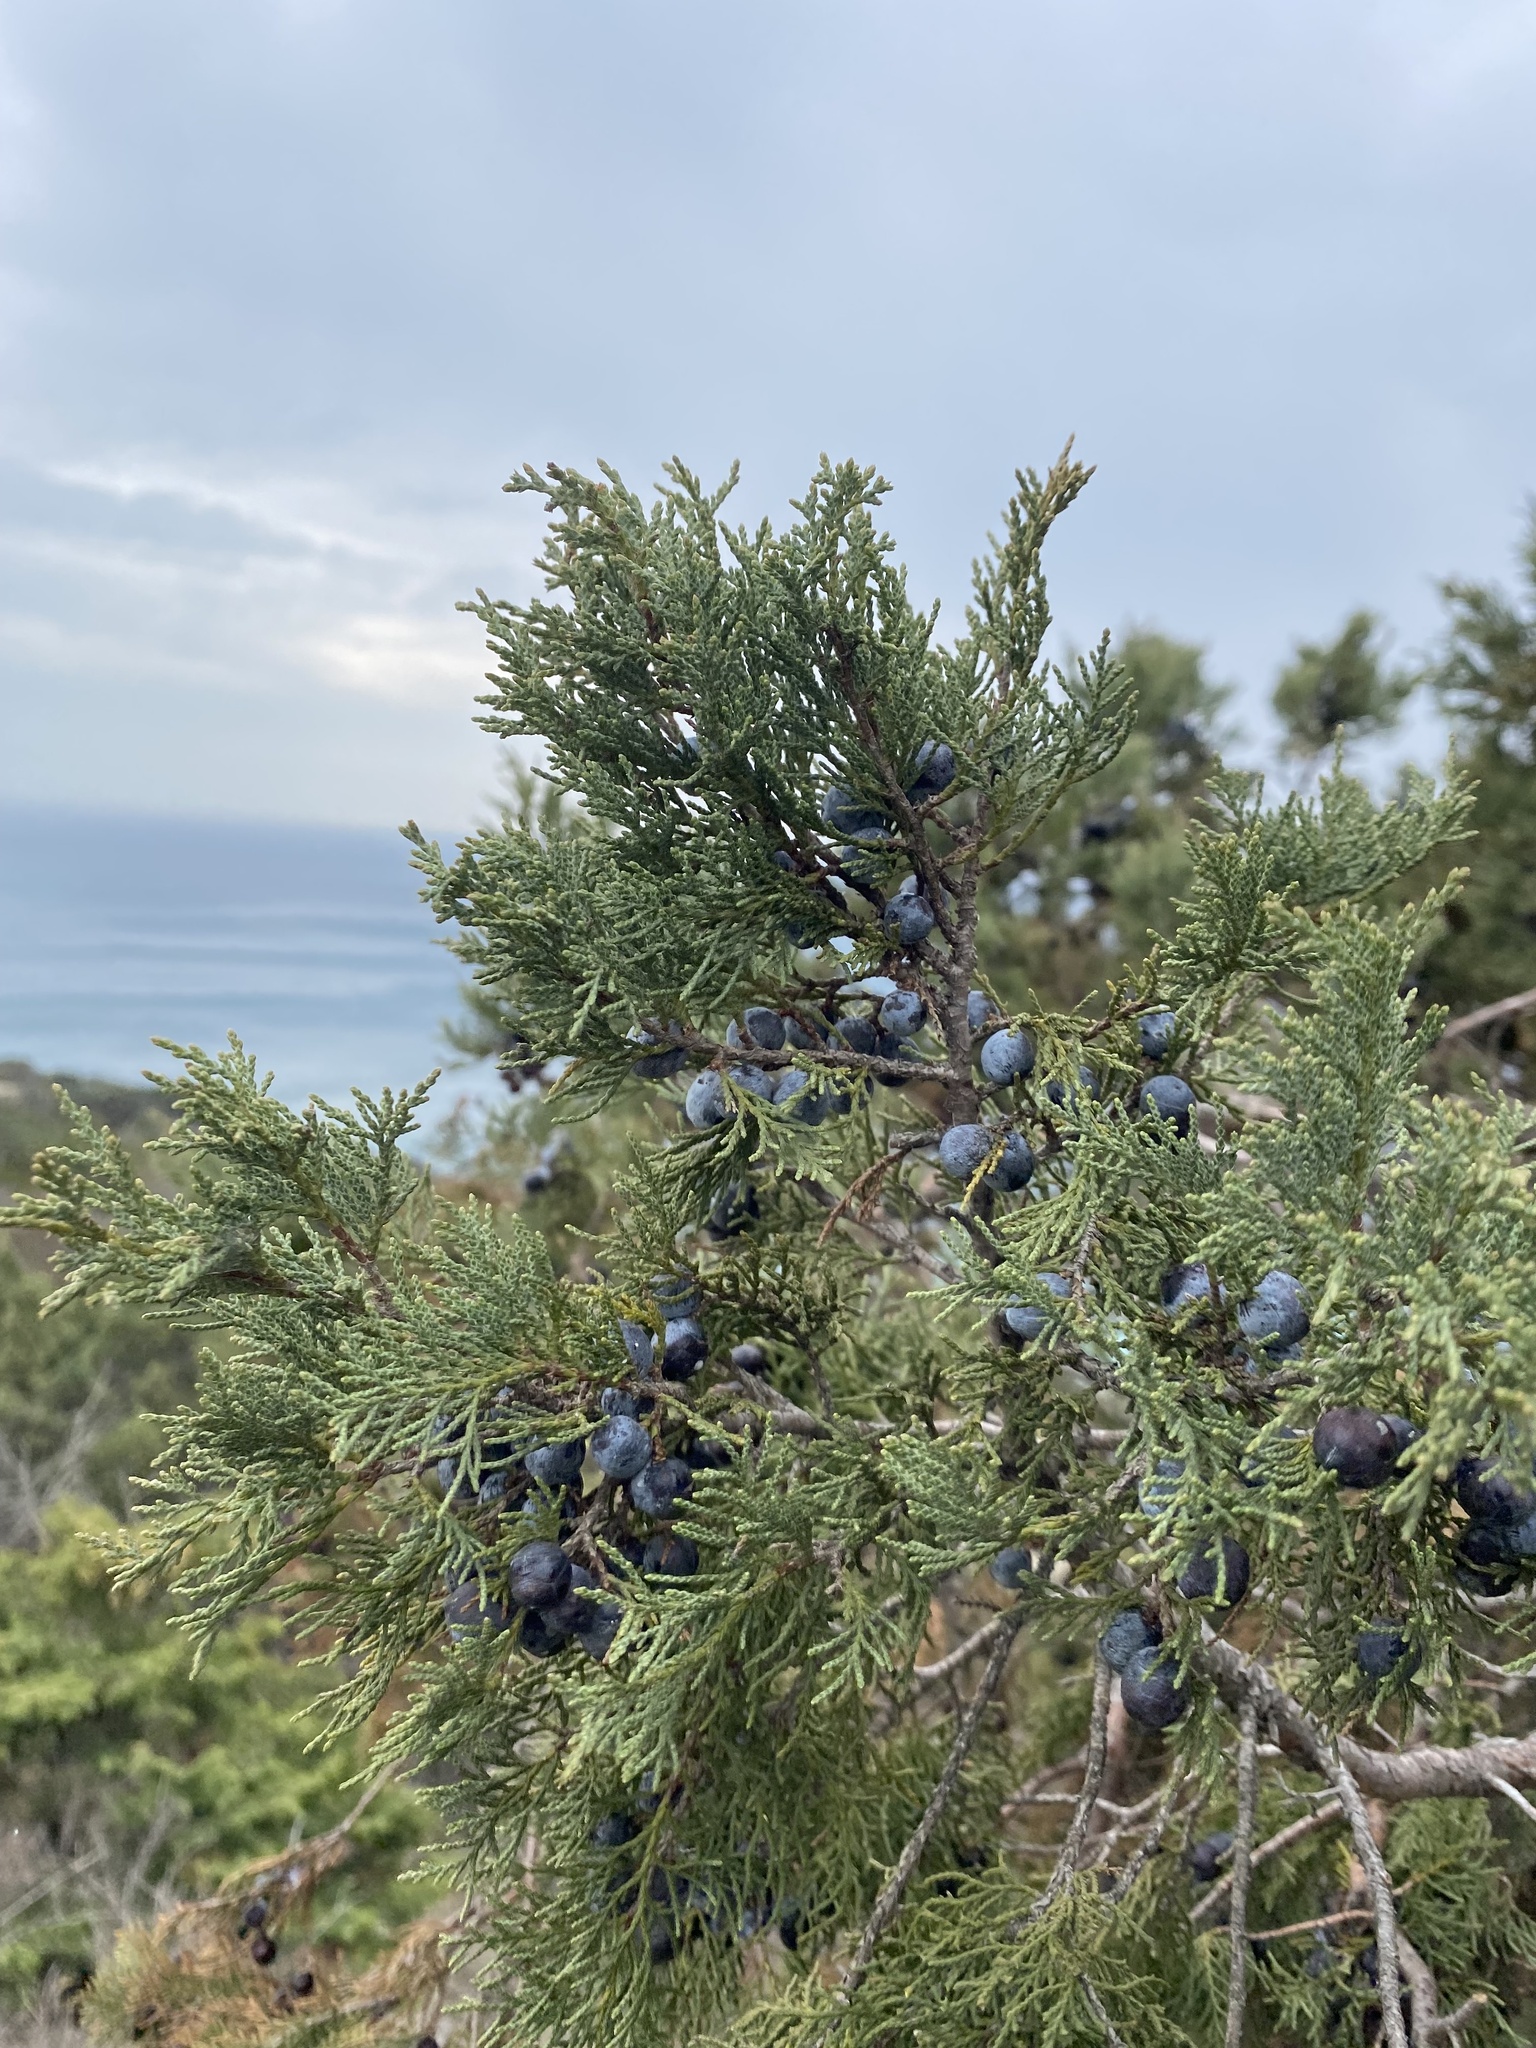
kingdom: Plantae
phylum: Tracheophyta
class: Pinopsida
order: Pinales
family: Cupressaceae
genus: Juniperus
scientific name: Juniperus excelsa
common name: Crimean juniper
